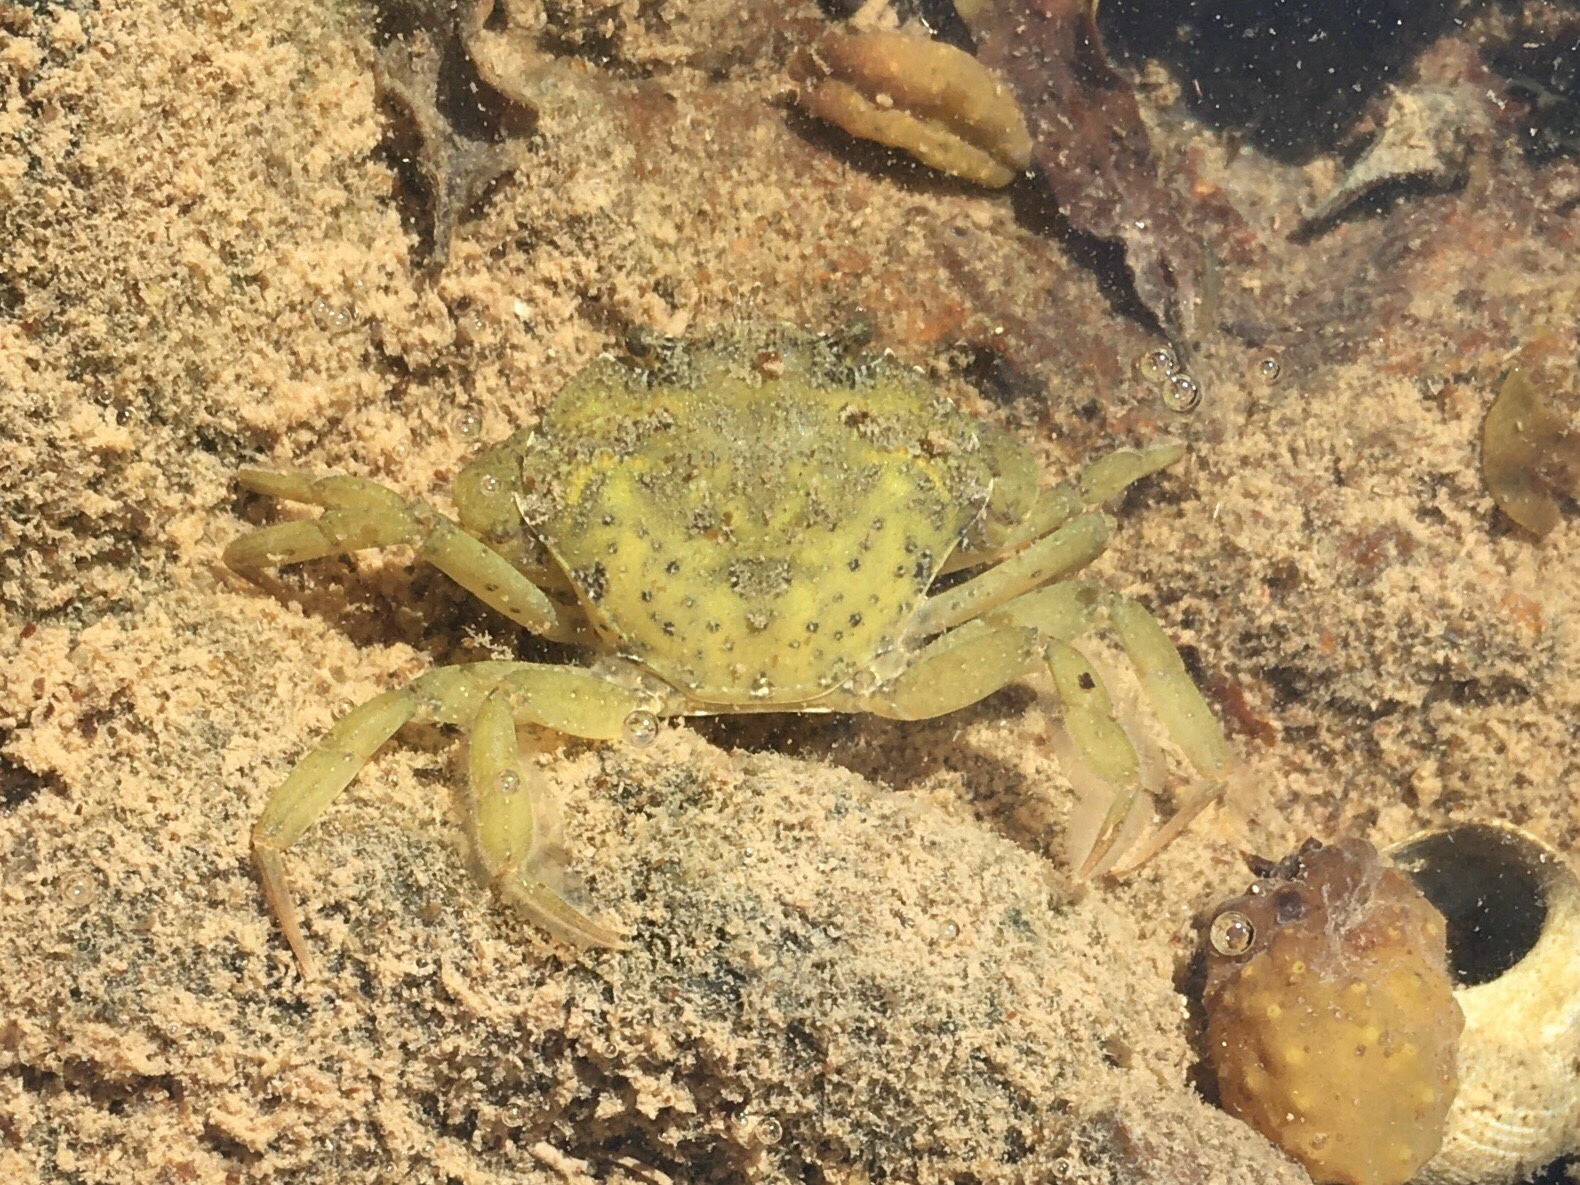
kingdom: Animalia
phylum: Arthropoda
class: Malacostraca
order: Decapoda
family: Carcinidae
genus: Carcinus
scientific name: Carcinus maenas
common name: European green crab
